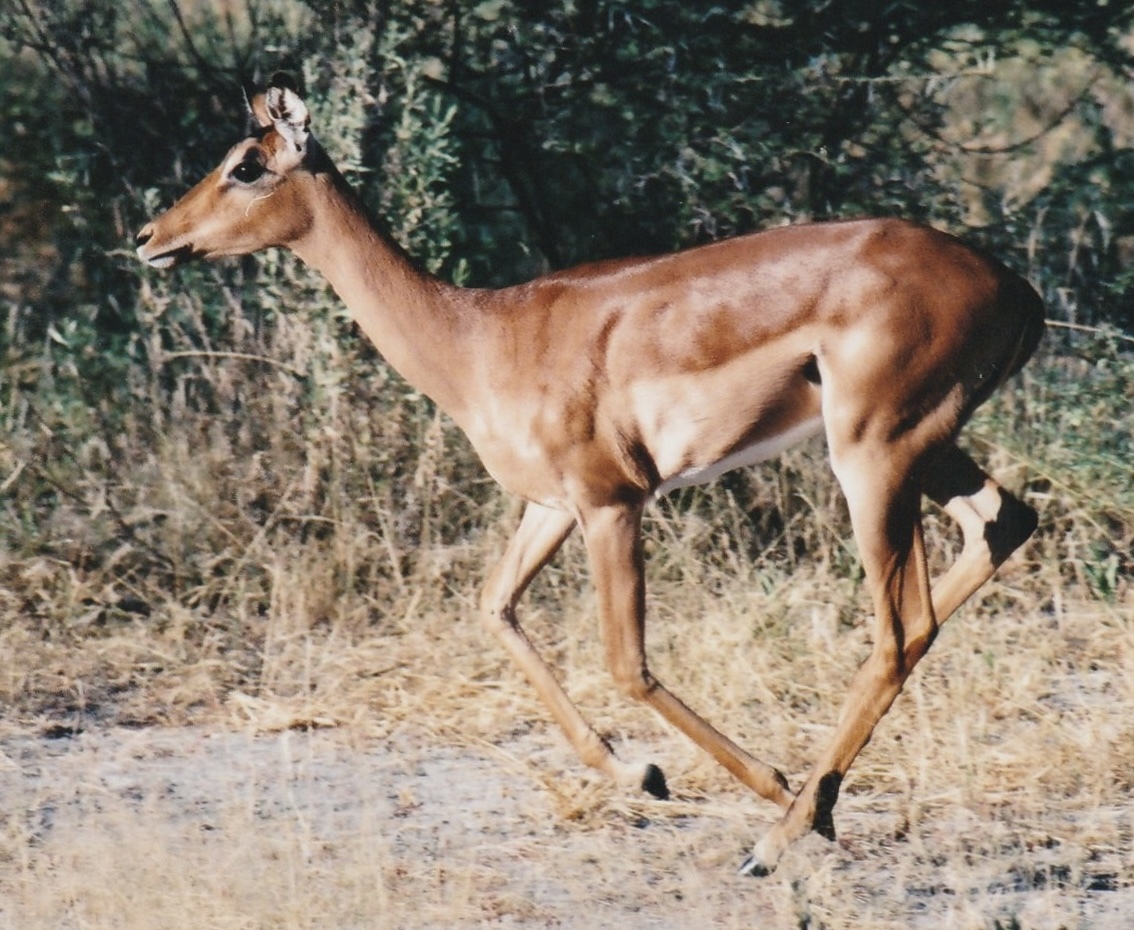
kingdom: Animalia
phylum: Chordata
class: Mammalia
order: Artiodactyla
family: Bovidae
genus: Aepyceros
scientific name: Aepyceros melampus
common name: Impala
